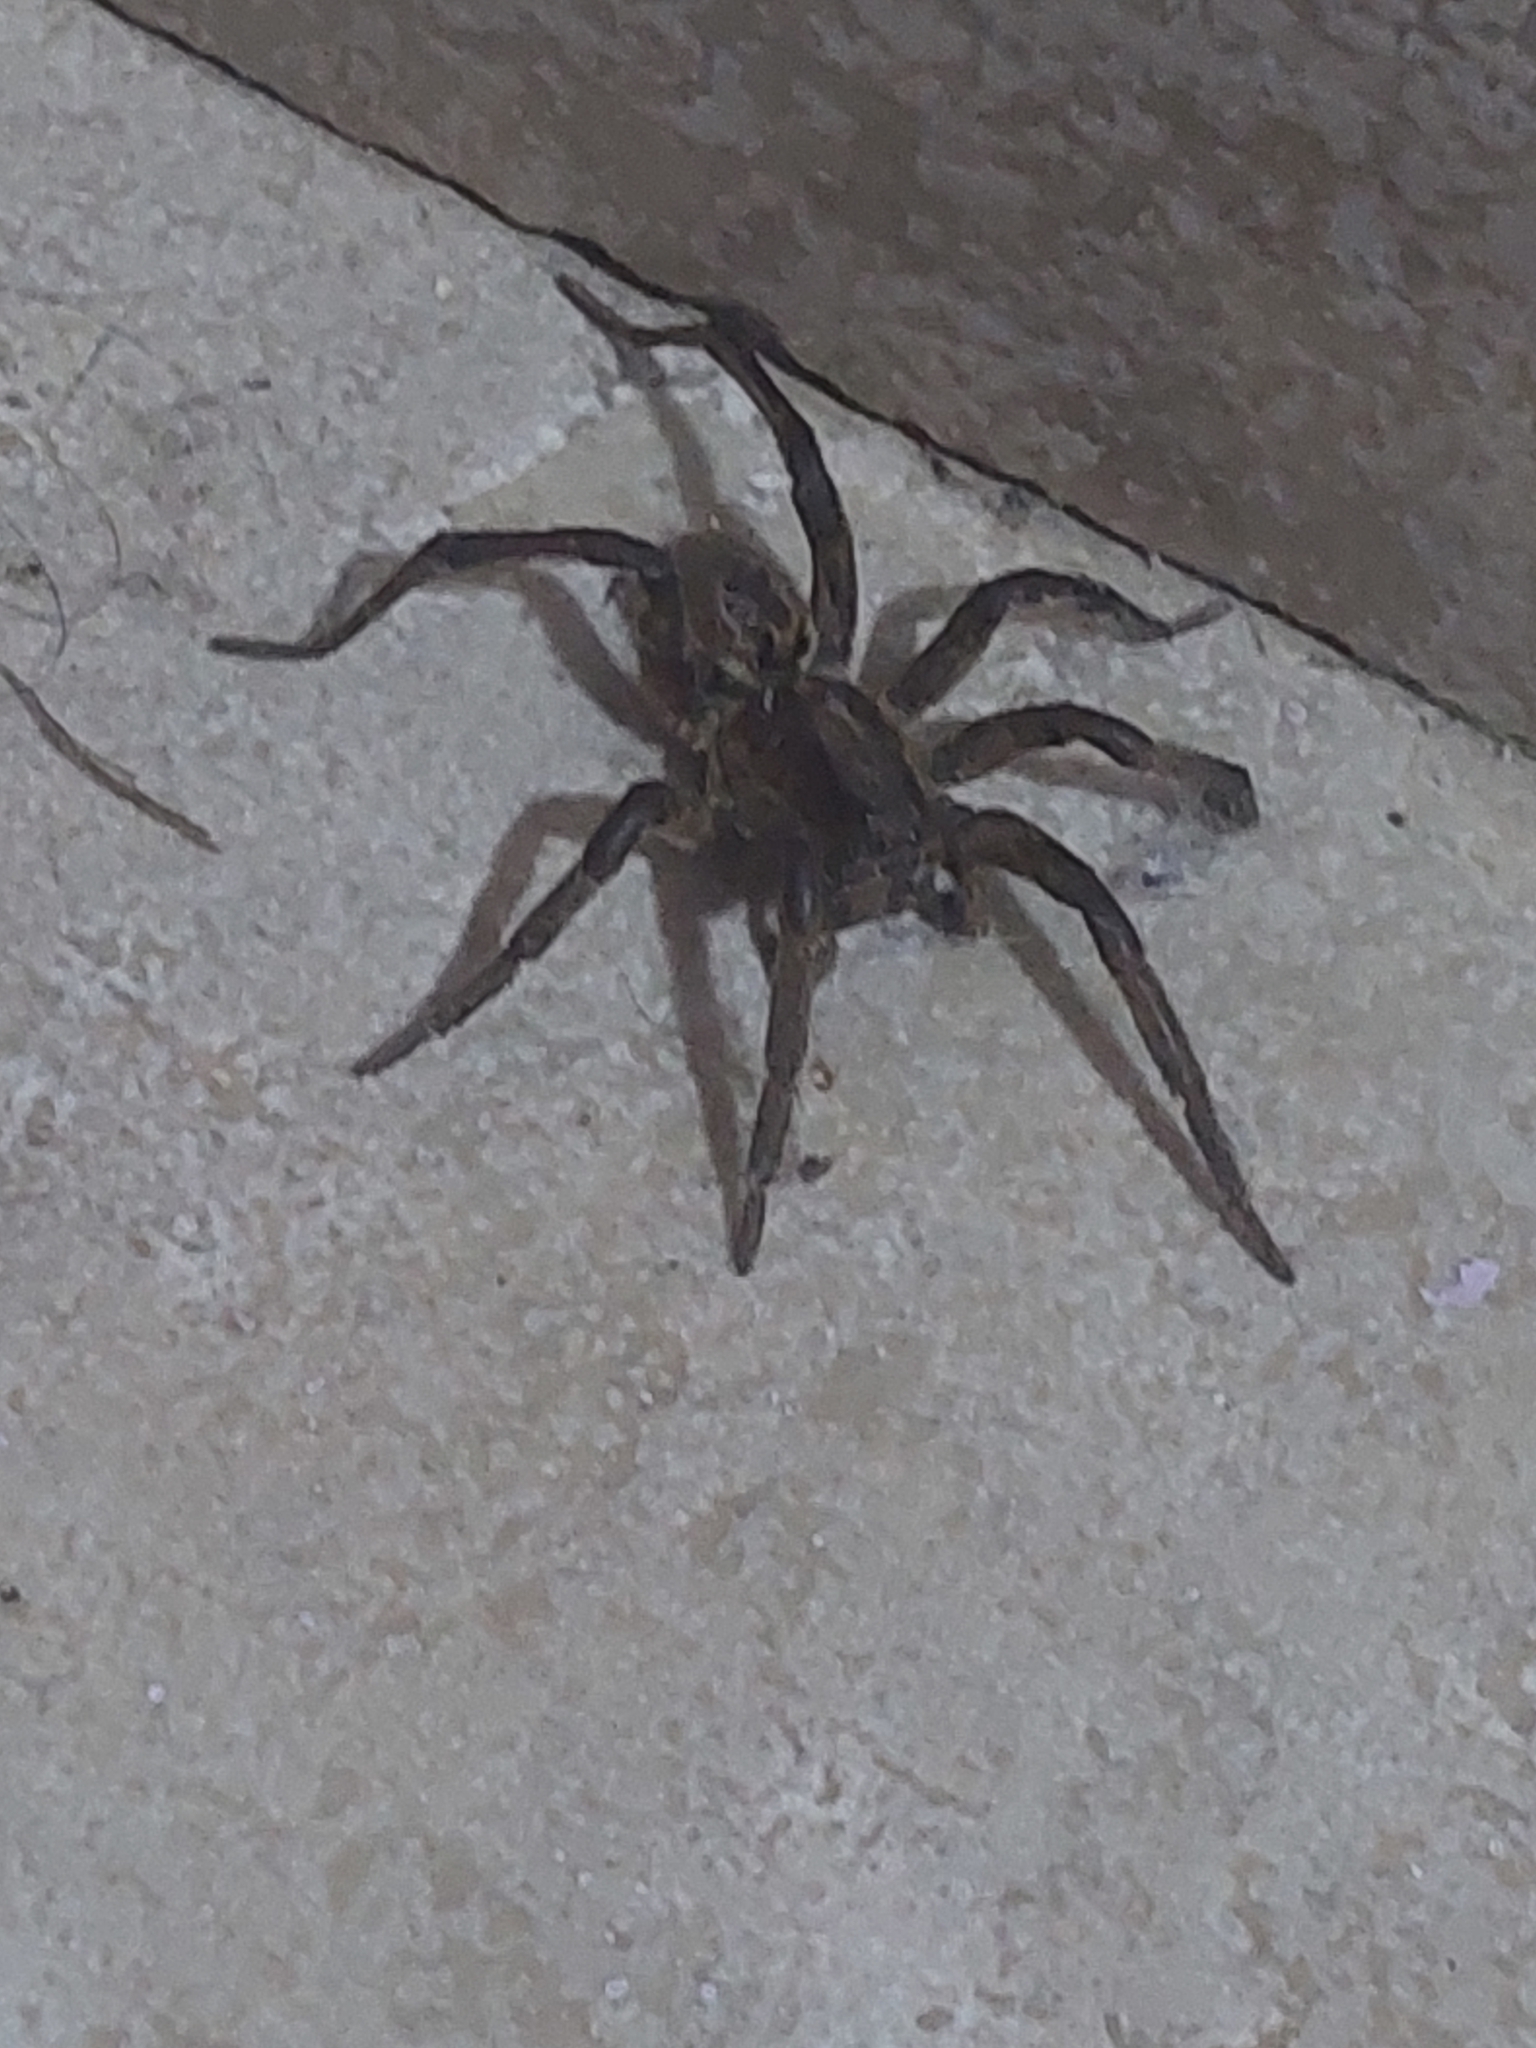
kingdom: Animalia
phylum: Arthropoda
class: Arachnida
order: Araneae
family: Lycosidae
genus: Lycosa
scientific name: Lycosa erythrognatha
